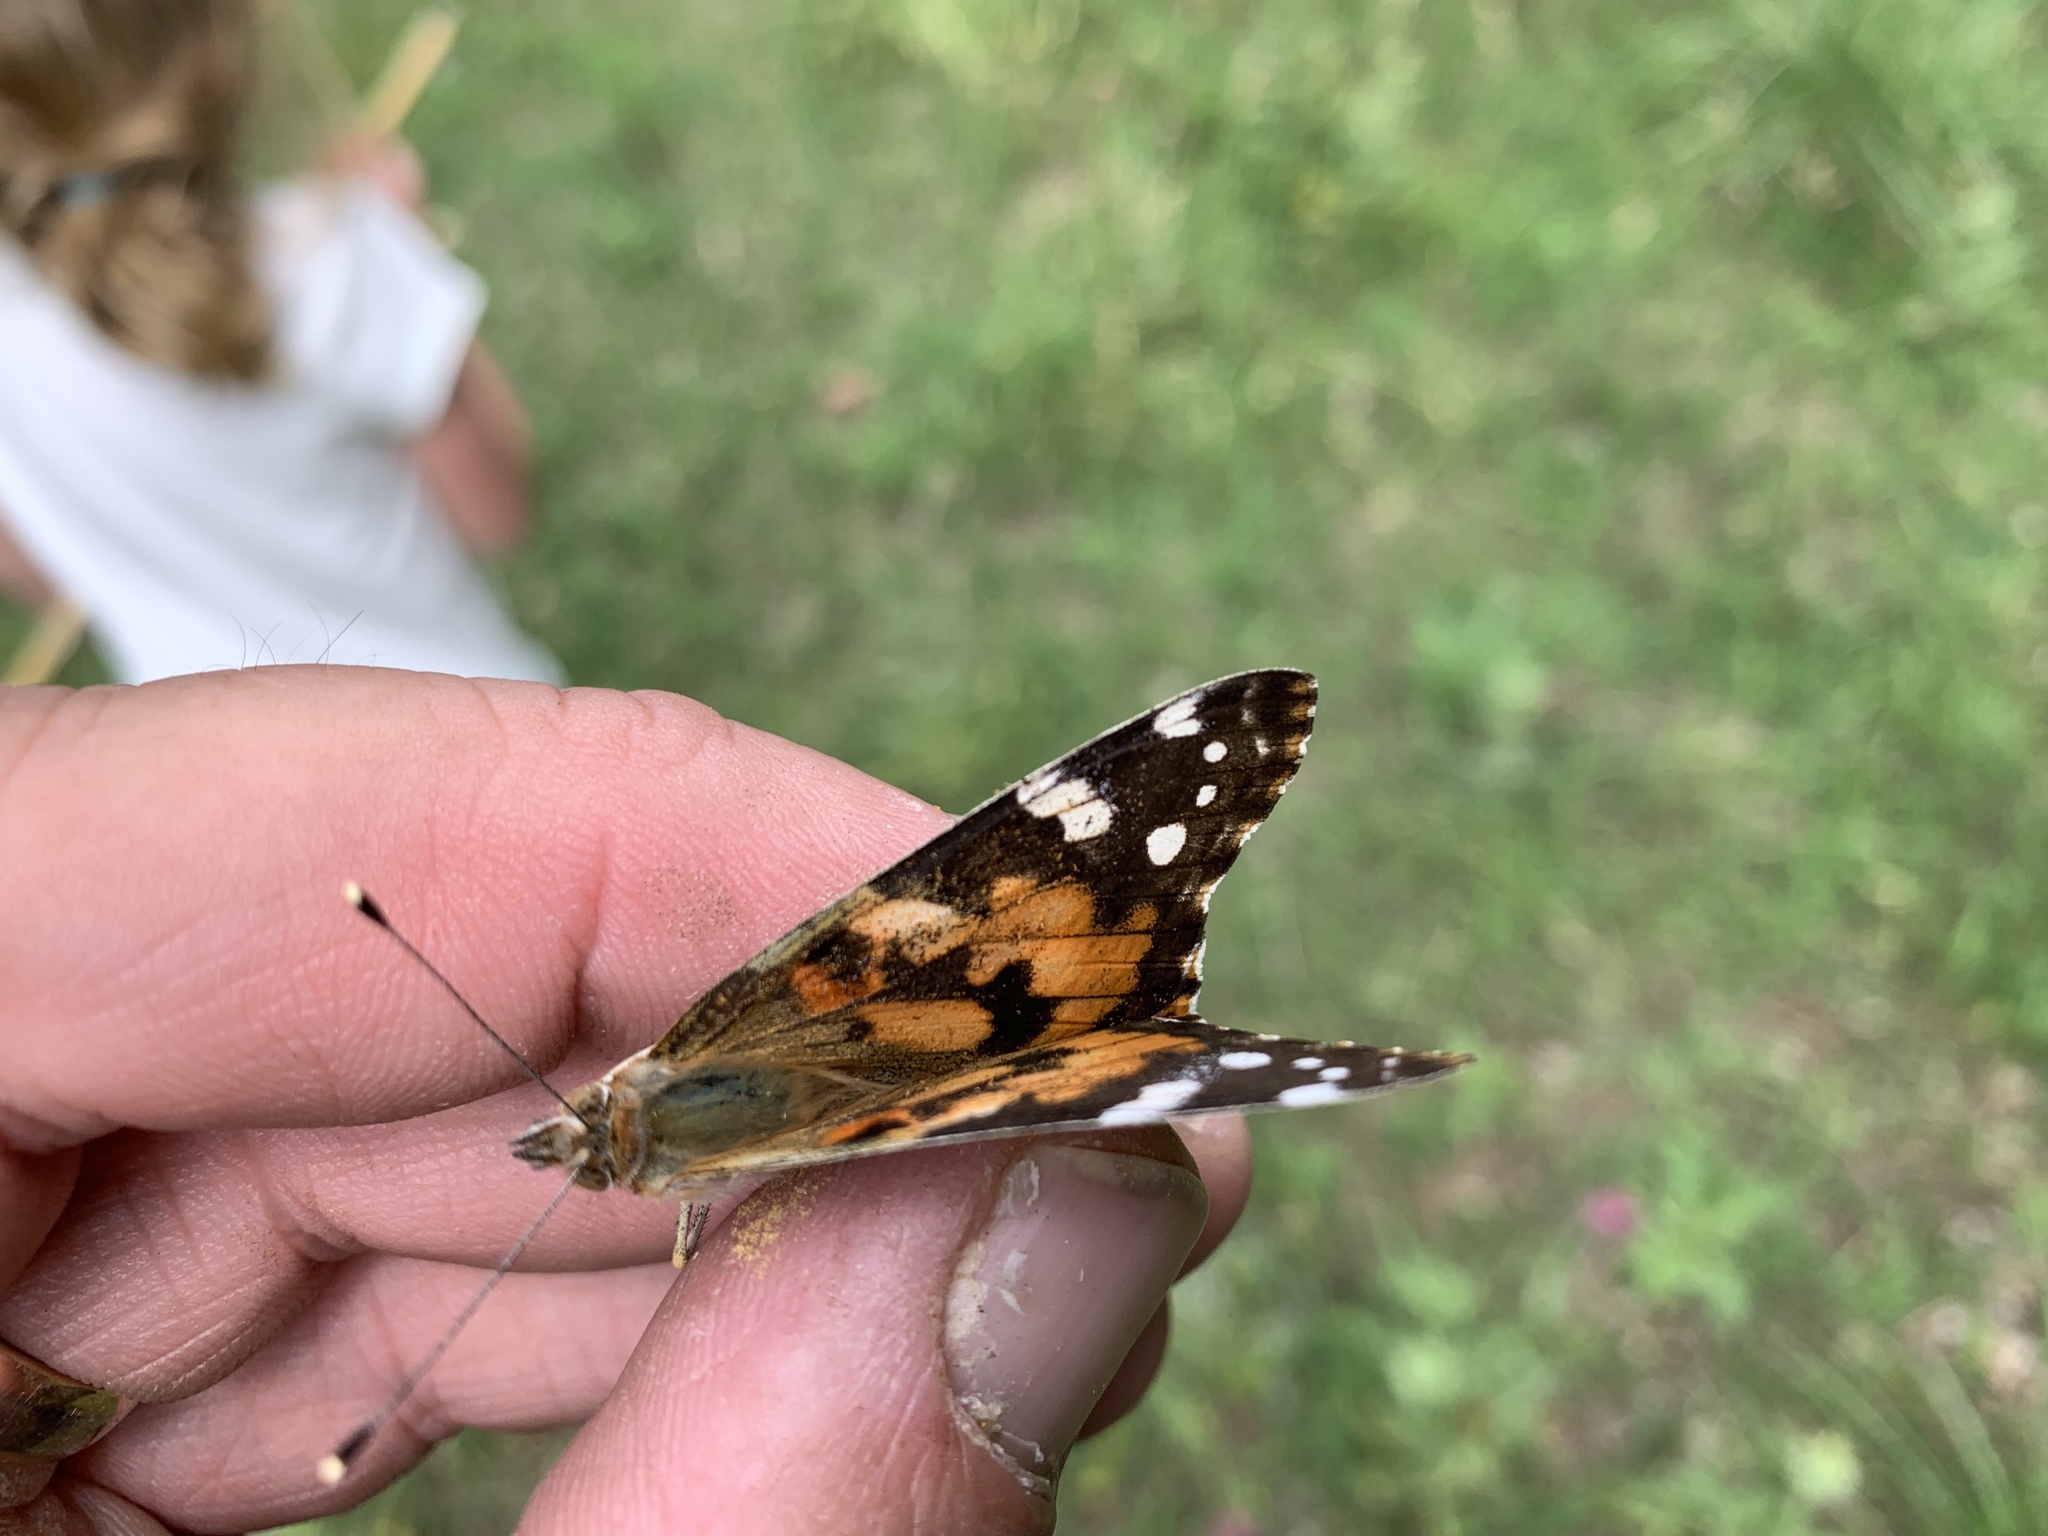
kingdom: Animalia
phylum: Arthropoda
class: Insecta
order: Lepidoptera
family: Nymphalidae
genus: Vanessa
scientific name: Vanessa cardui
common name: Painted lady
